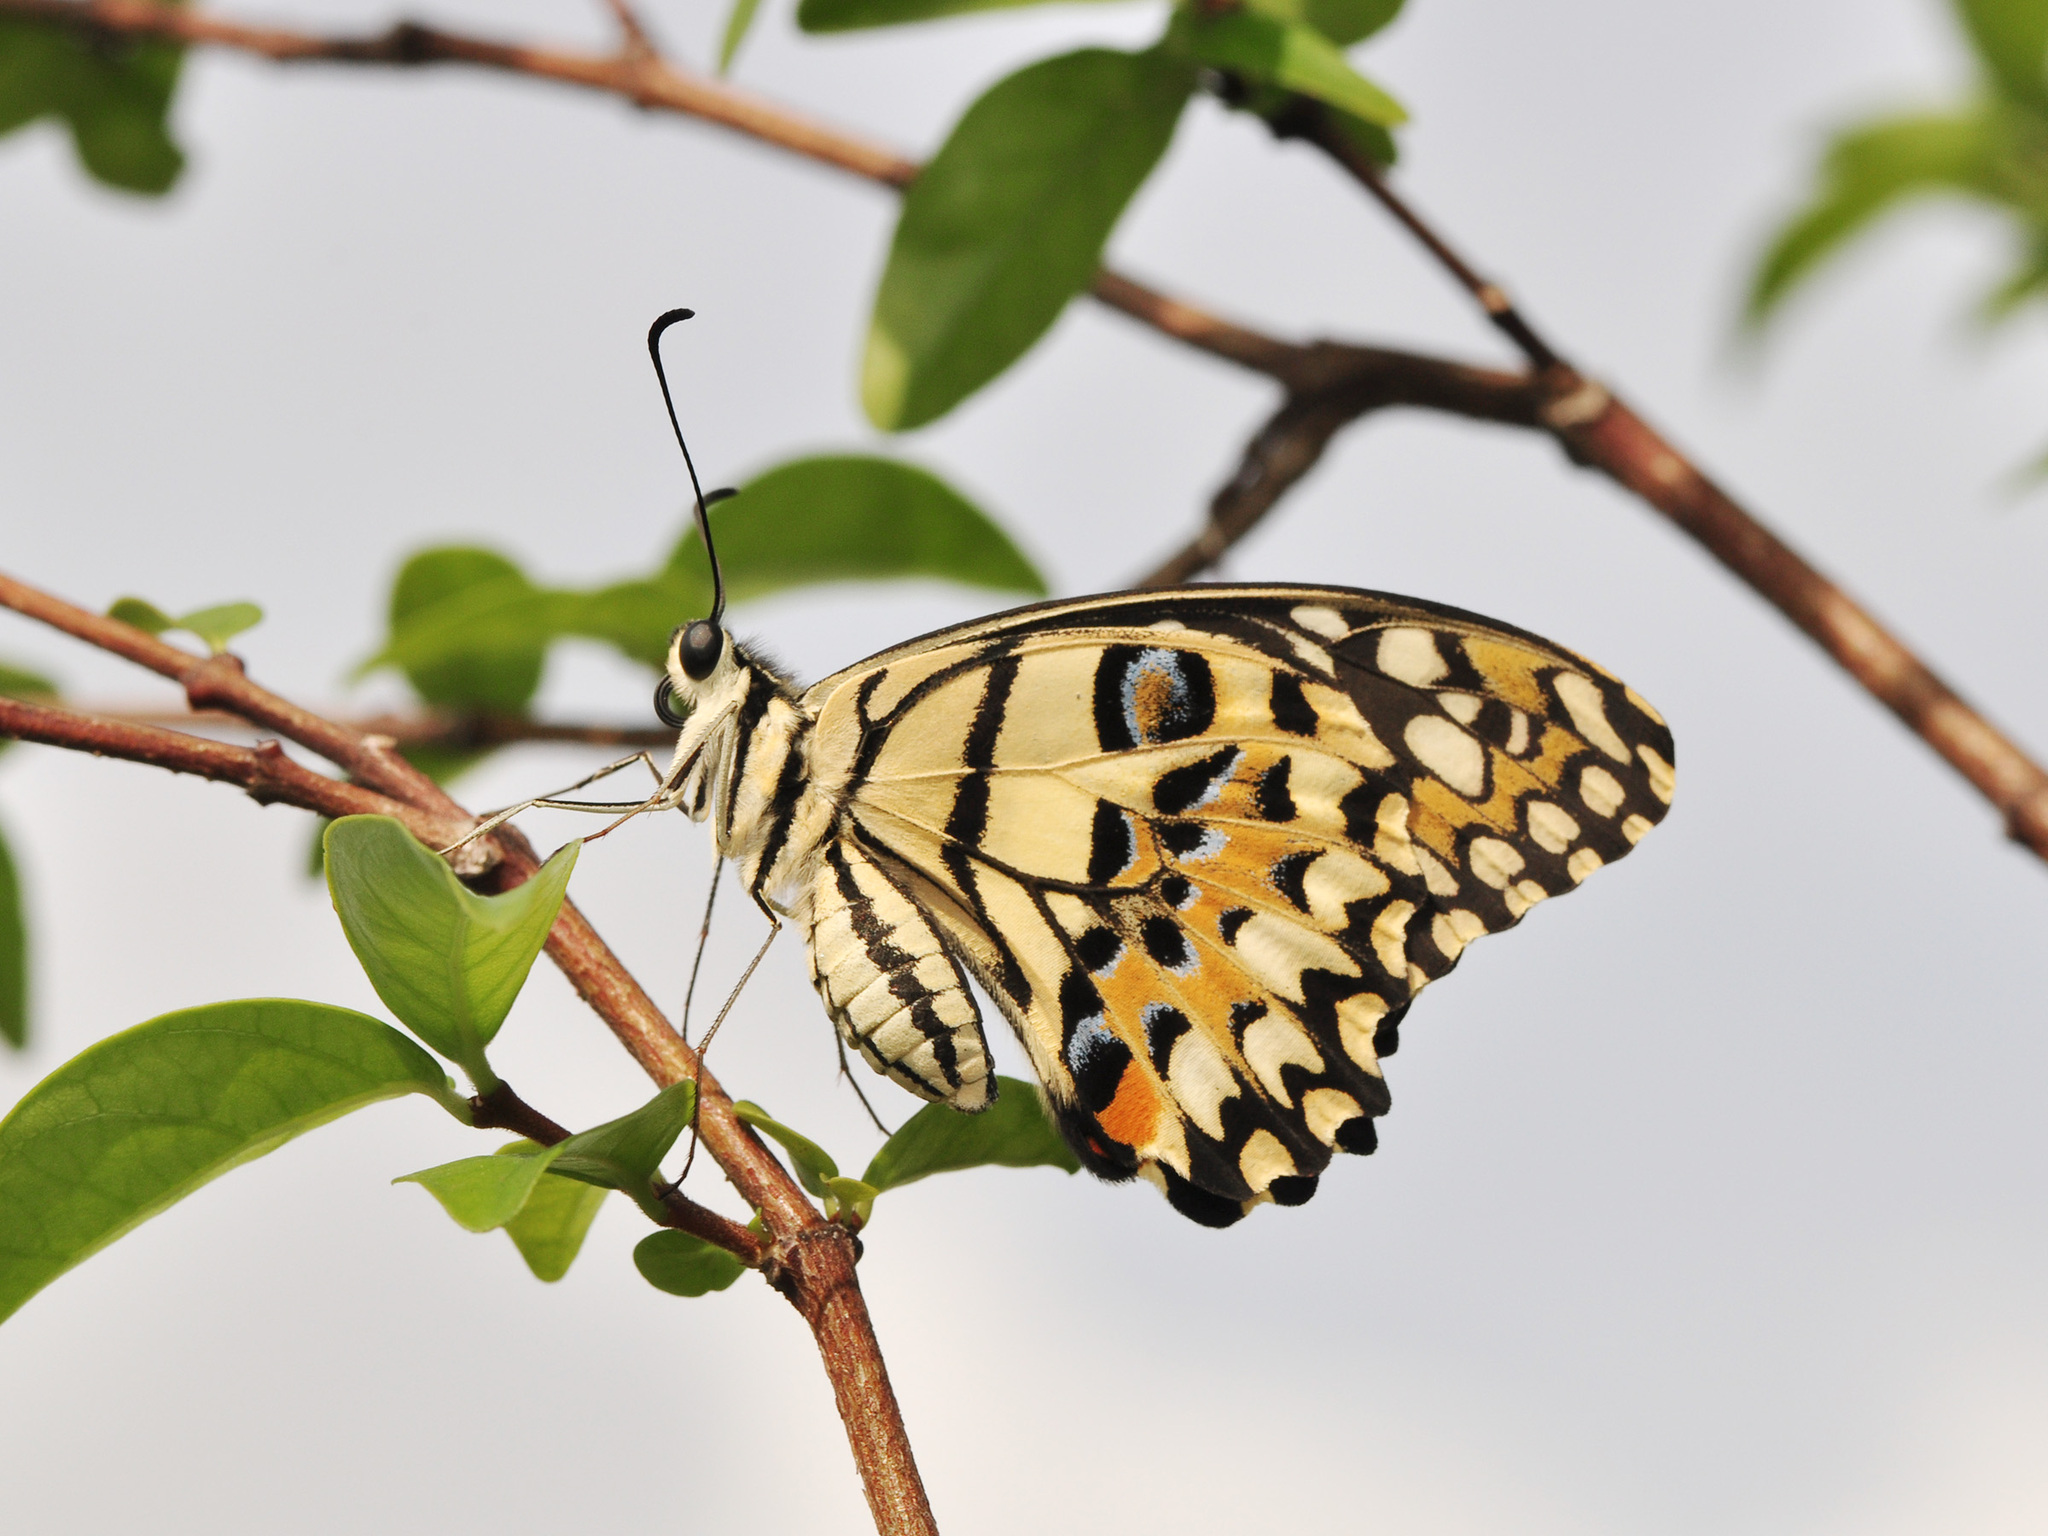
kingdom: Animalia
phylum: Arthropoda
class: Insecta
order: Lepidoptera
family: Papilionidae
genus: Papilio
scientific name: Papilio demoleus
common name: Lime butterfly
